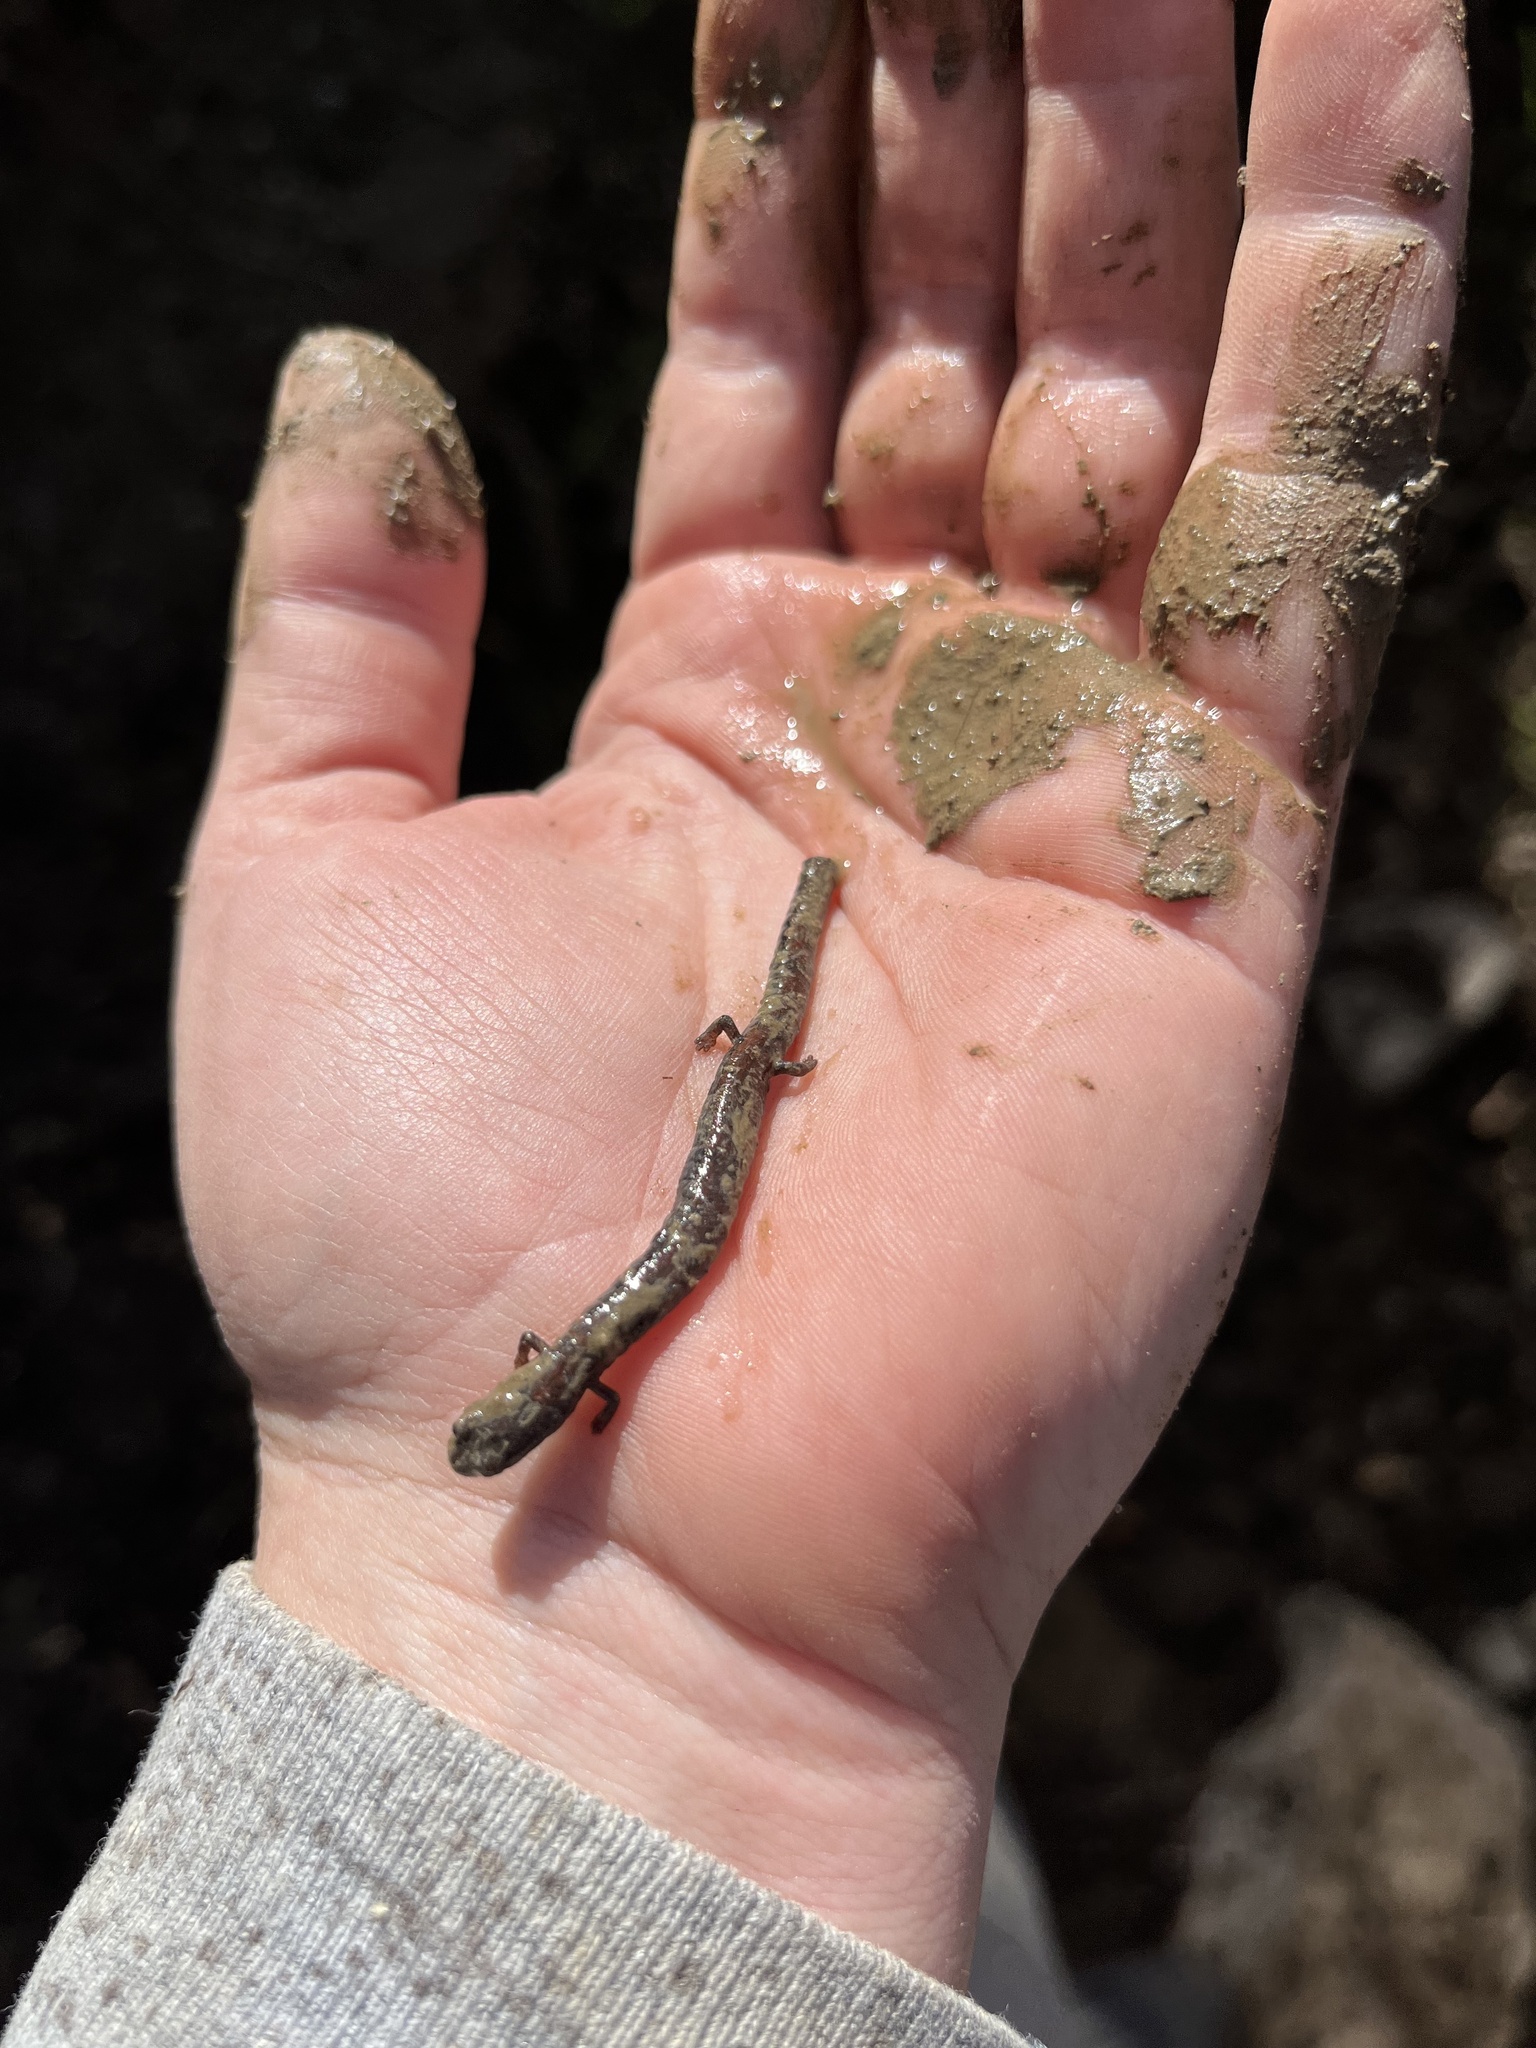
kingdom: Animalia
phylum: Chordata
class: Amphibia
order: Caudata
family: Plethodontidae
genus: Batrachoseps
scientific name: Batrachoseps nigriventris
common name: Black-bellied slender salamander
